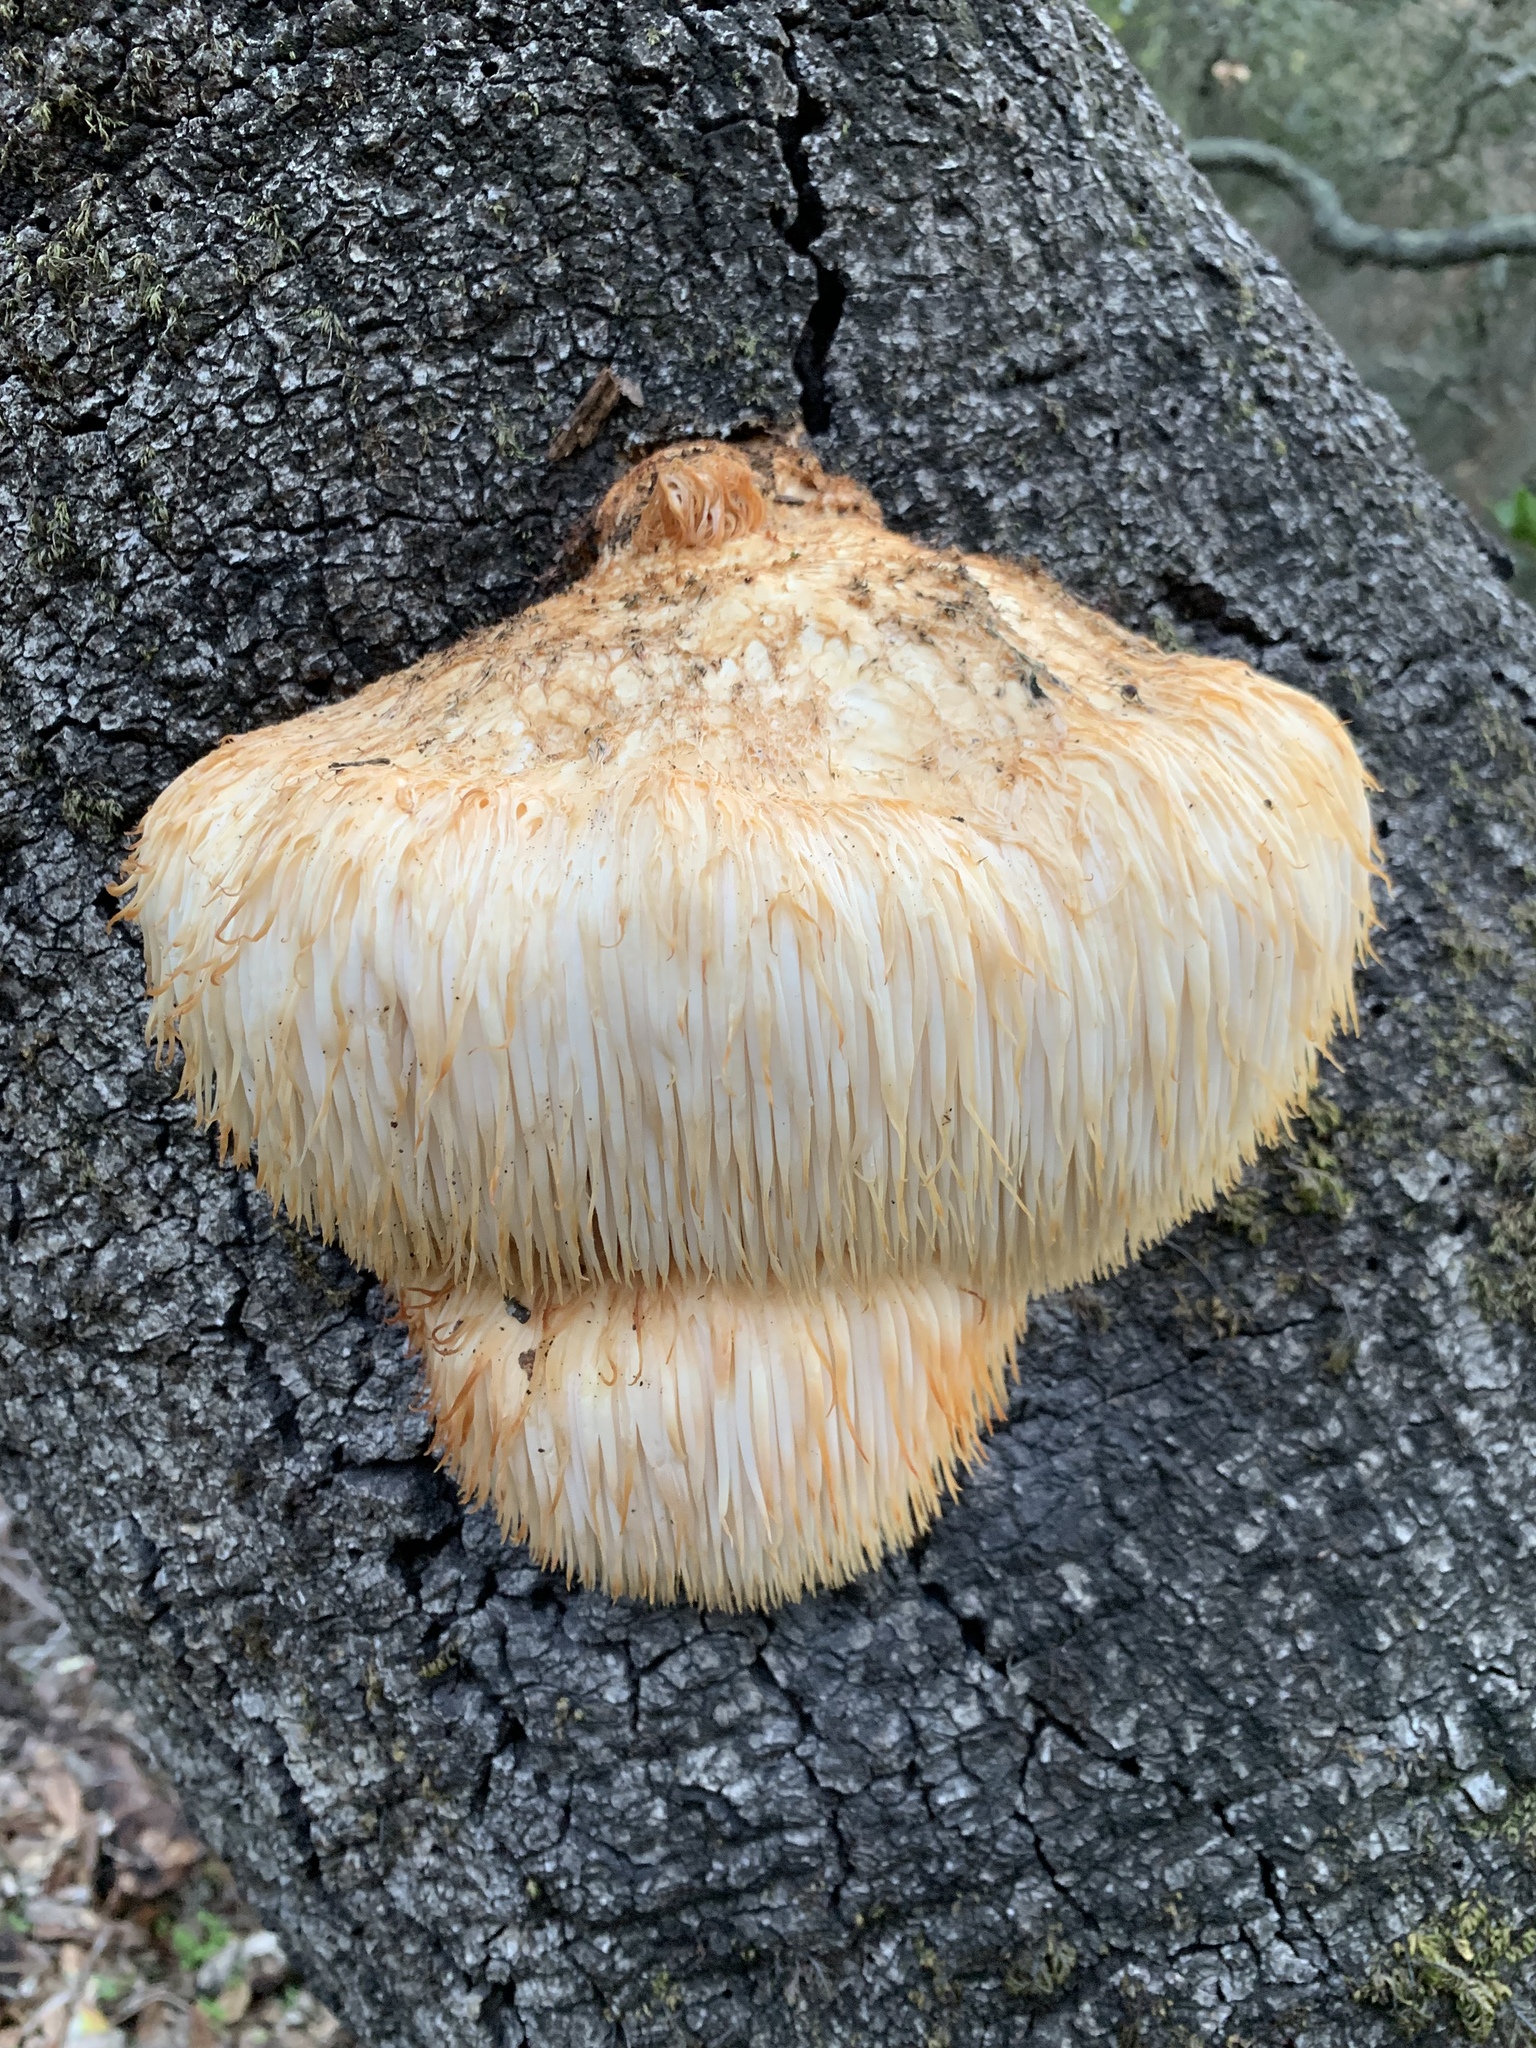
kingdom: Fungi
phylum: Basidiomycota
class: Agaricomycetes
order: Russulales
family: Hericiaceae
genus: Hericium
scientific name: Hericium erinaceus
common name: Bearded tooth
